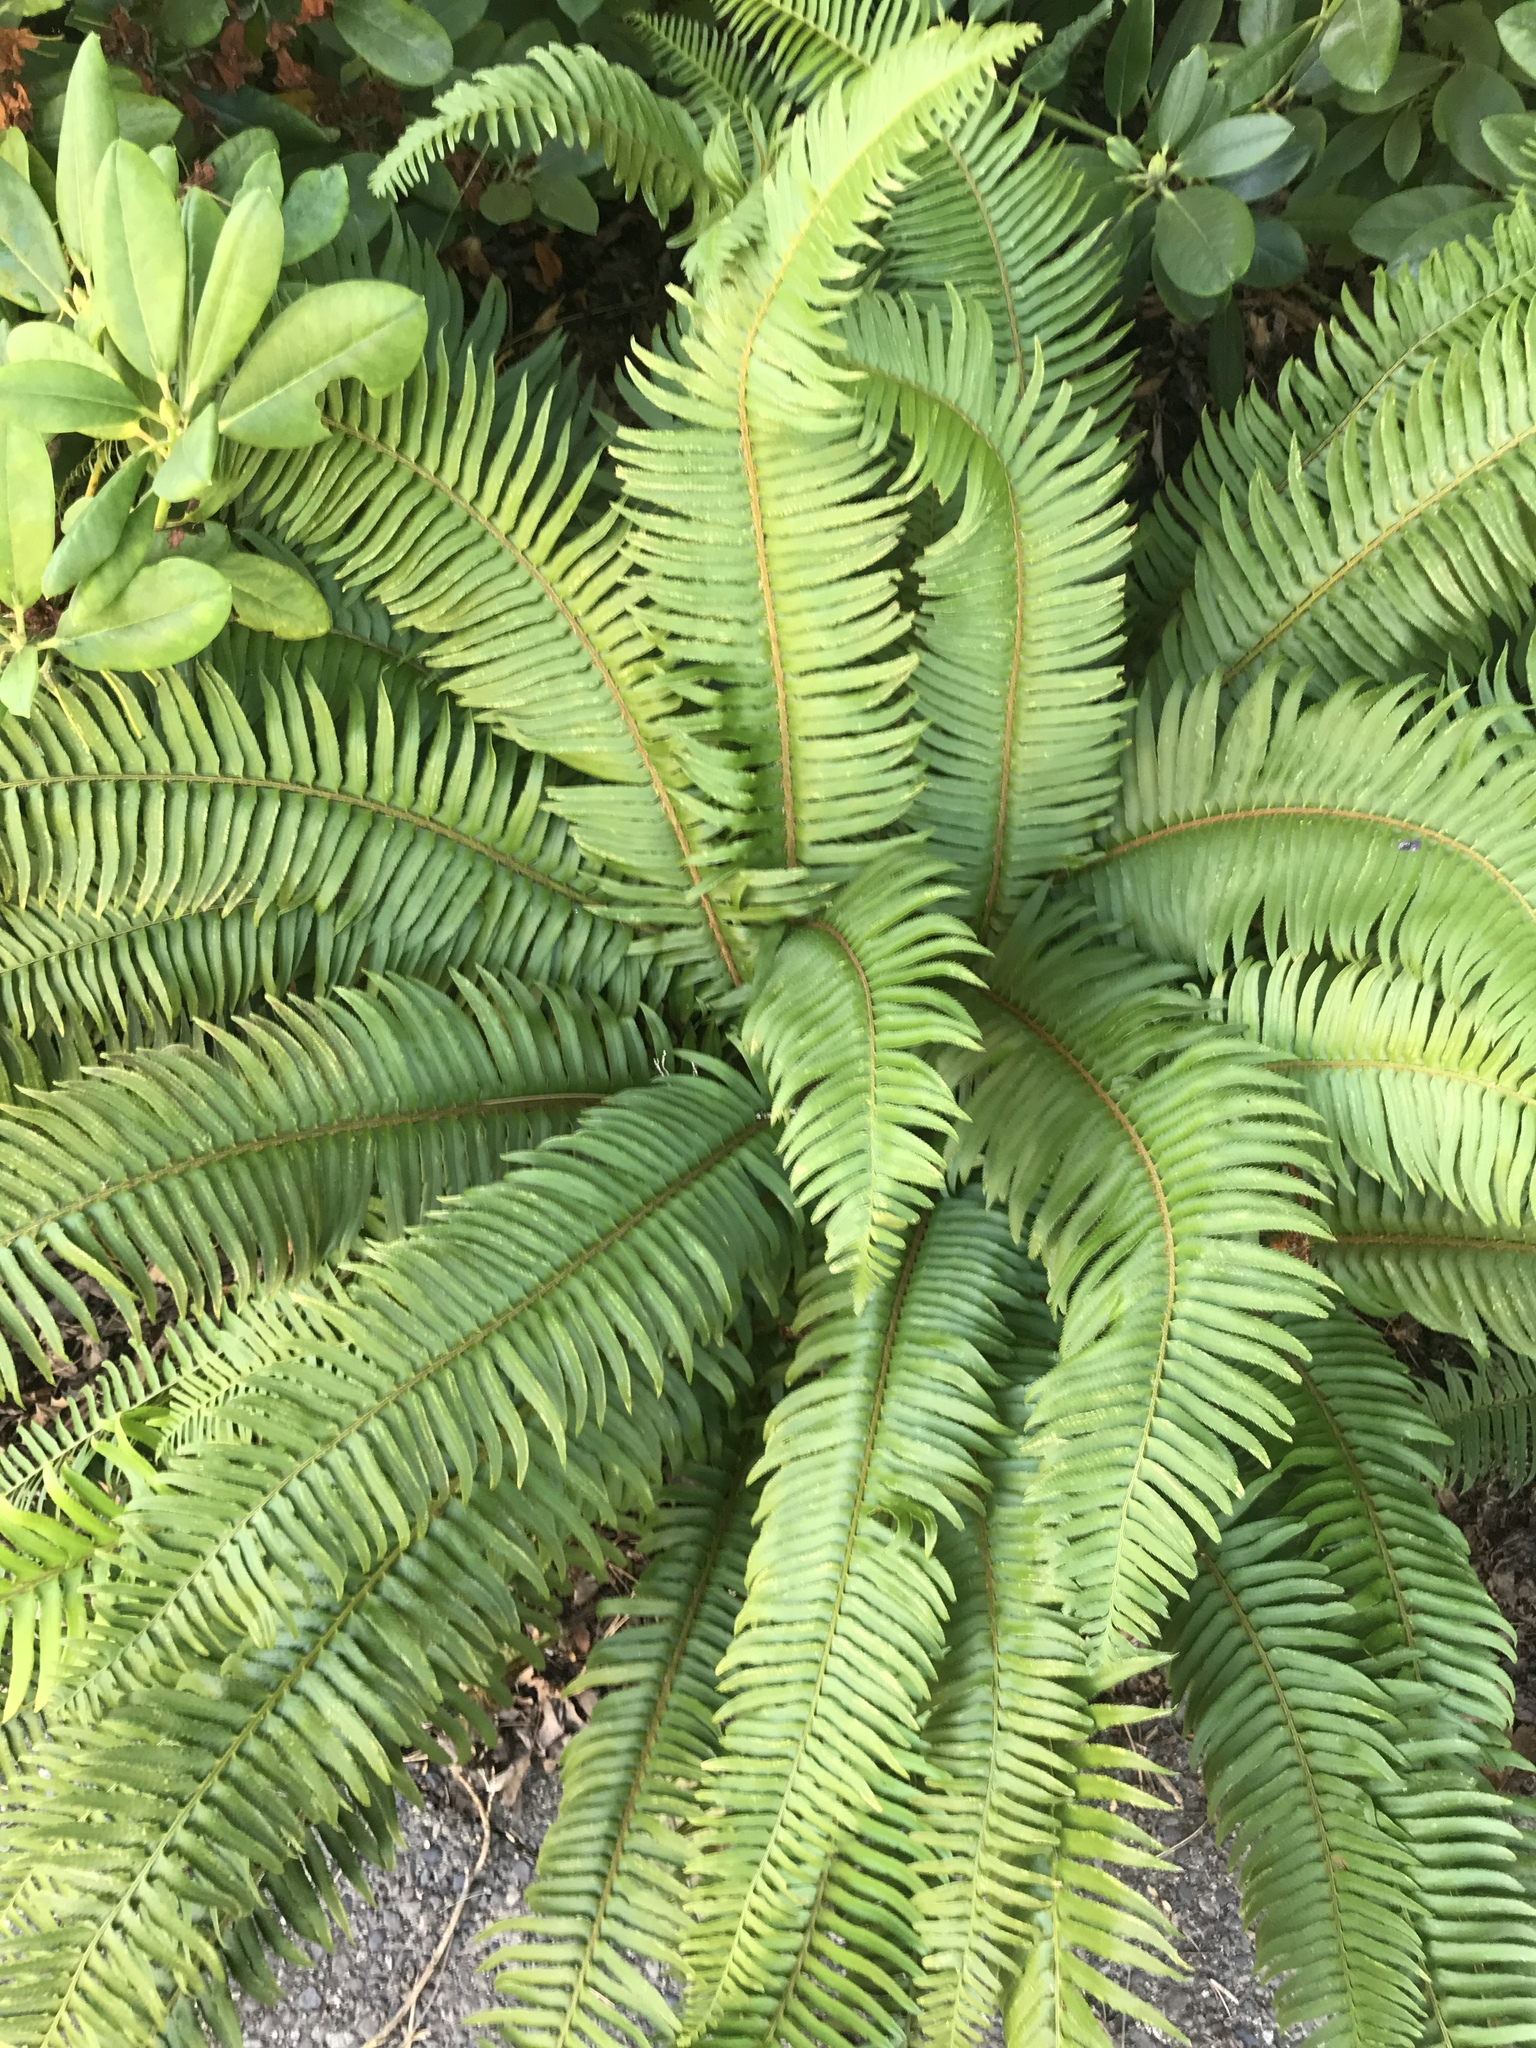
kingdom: Plantae
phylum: Tracheophyta
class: Polypodiopsida
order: Polypodiales
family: Dryopteridaceae
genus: Polystichum
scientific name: Polystichum munitum
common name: Western sword-fern
